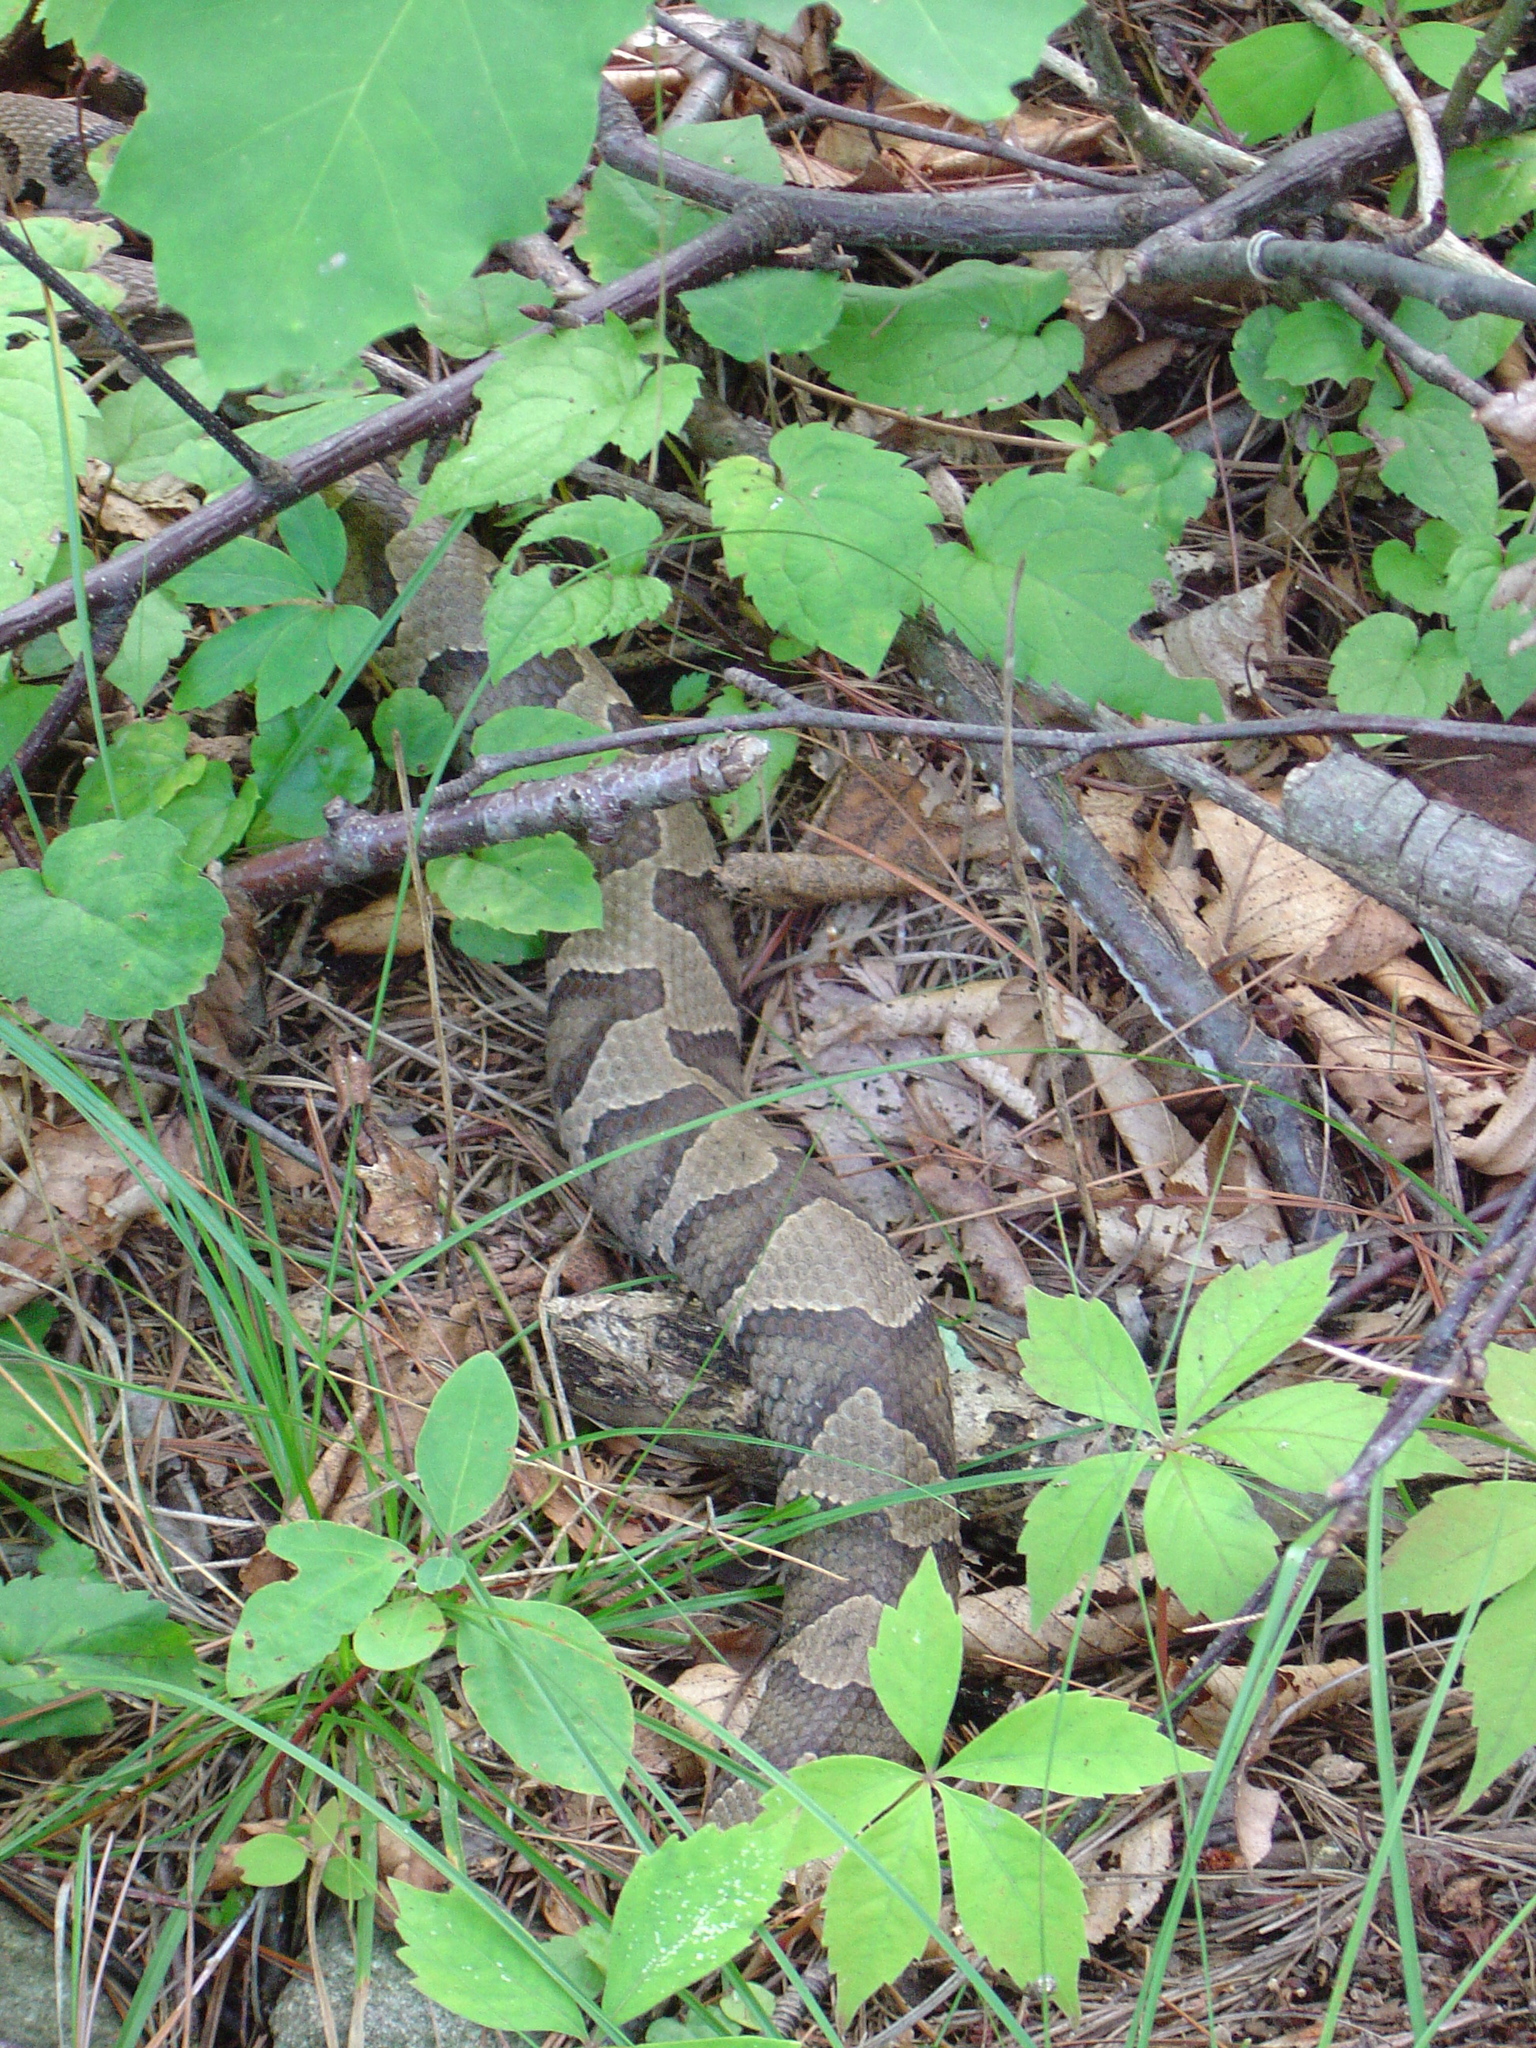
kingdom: Animalia
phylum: Chordata
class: Squamata
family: Viperidae
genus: Agkistrodon
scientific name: Agkistrodon contortrix
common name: Northern copperhead
